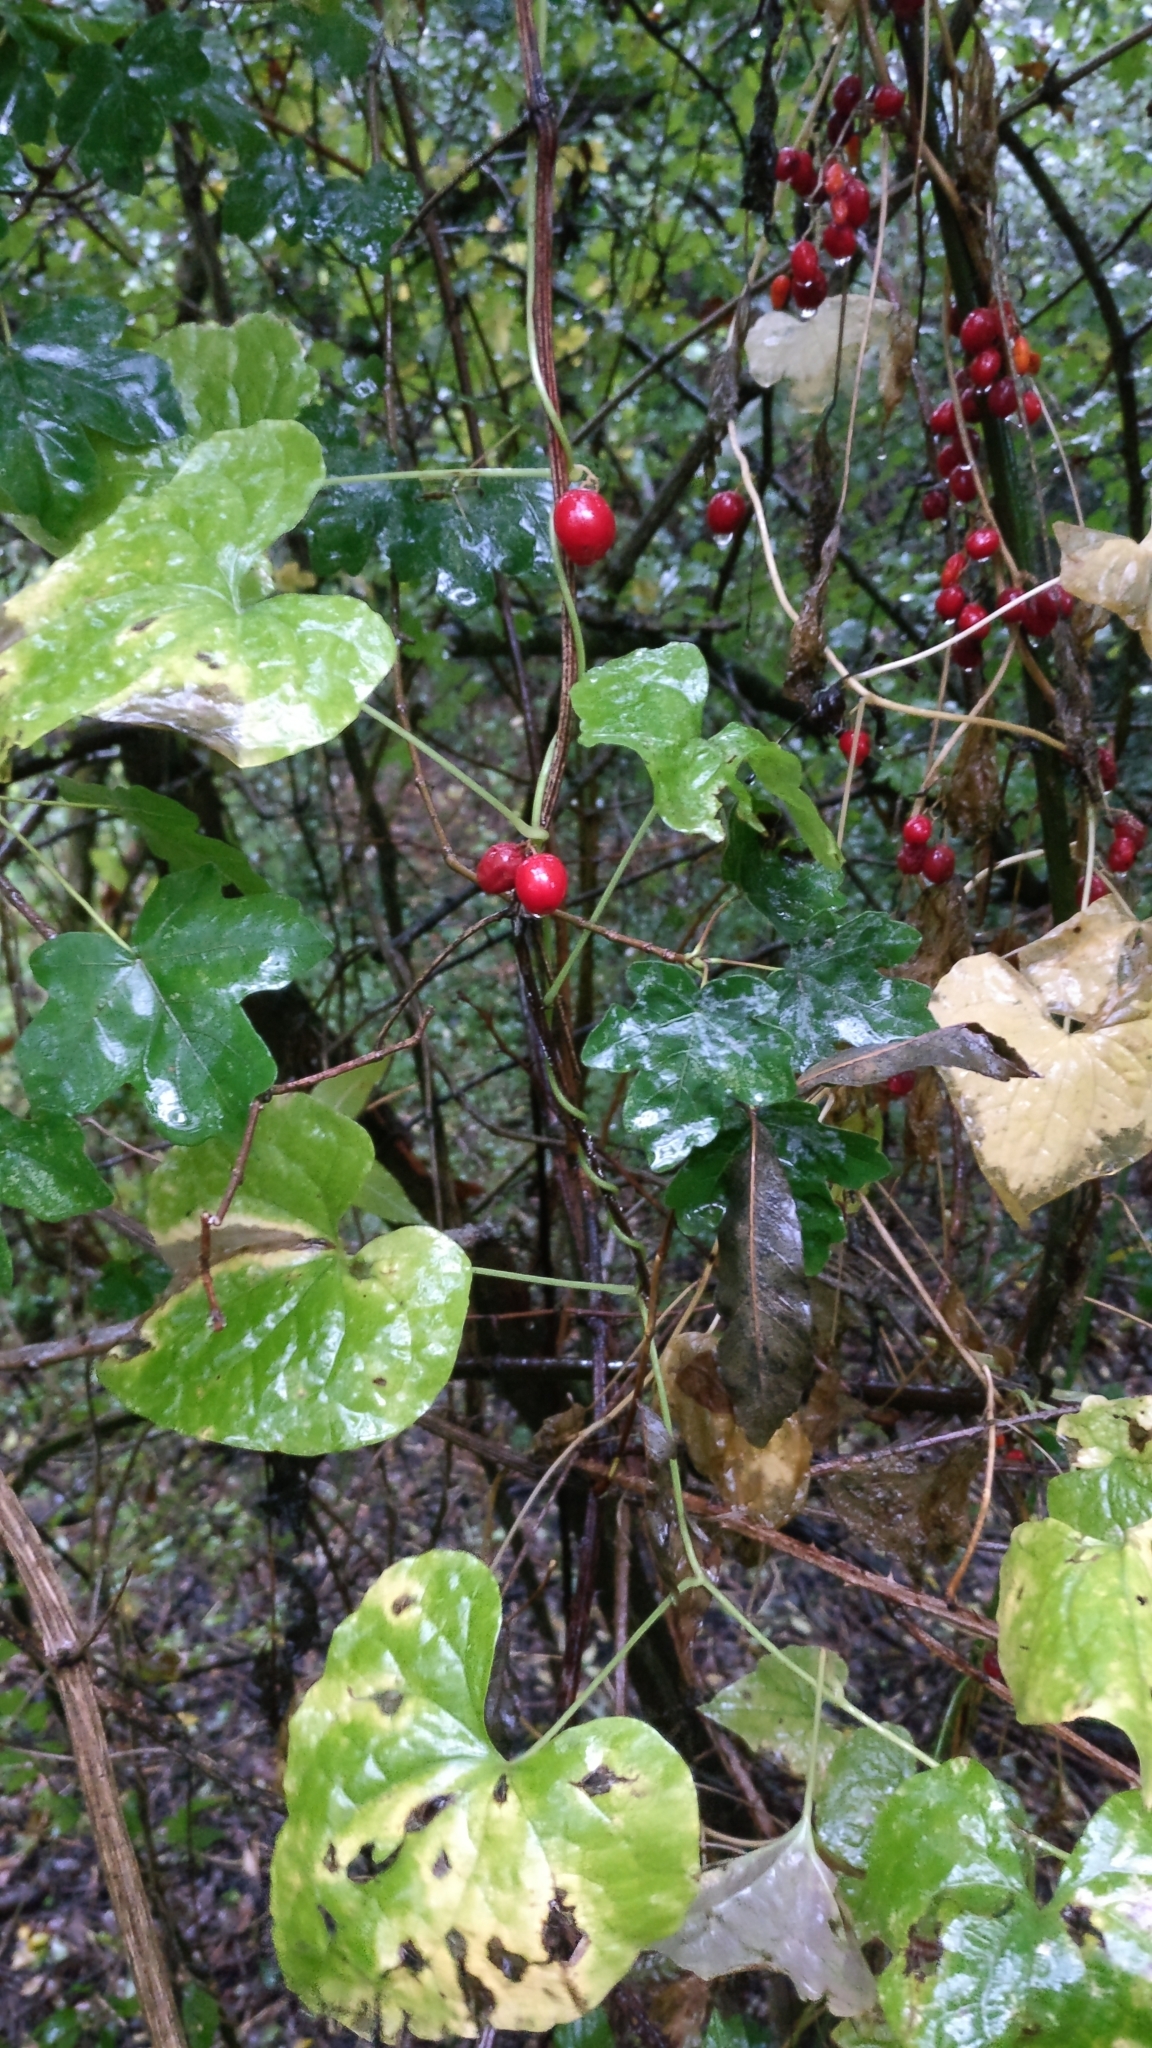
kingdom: Plantae
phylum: Tracheophyta
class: Liliopsida
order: Dioscoreales
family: Dioscoreaceae
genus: Dioscorea
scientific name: Dioscorea communis
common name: Black-bindweed
